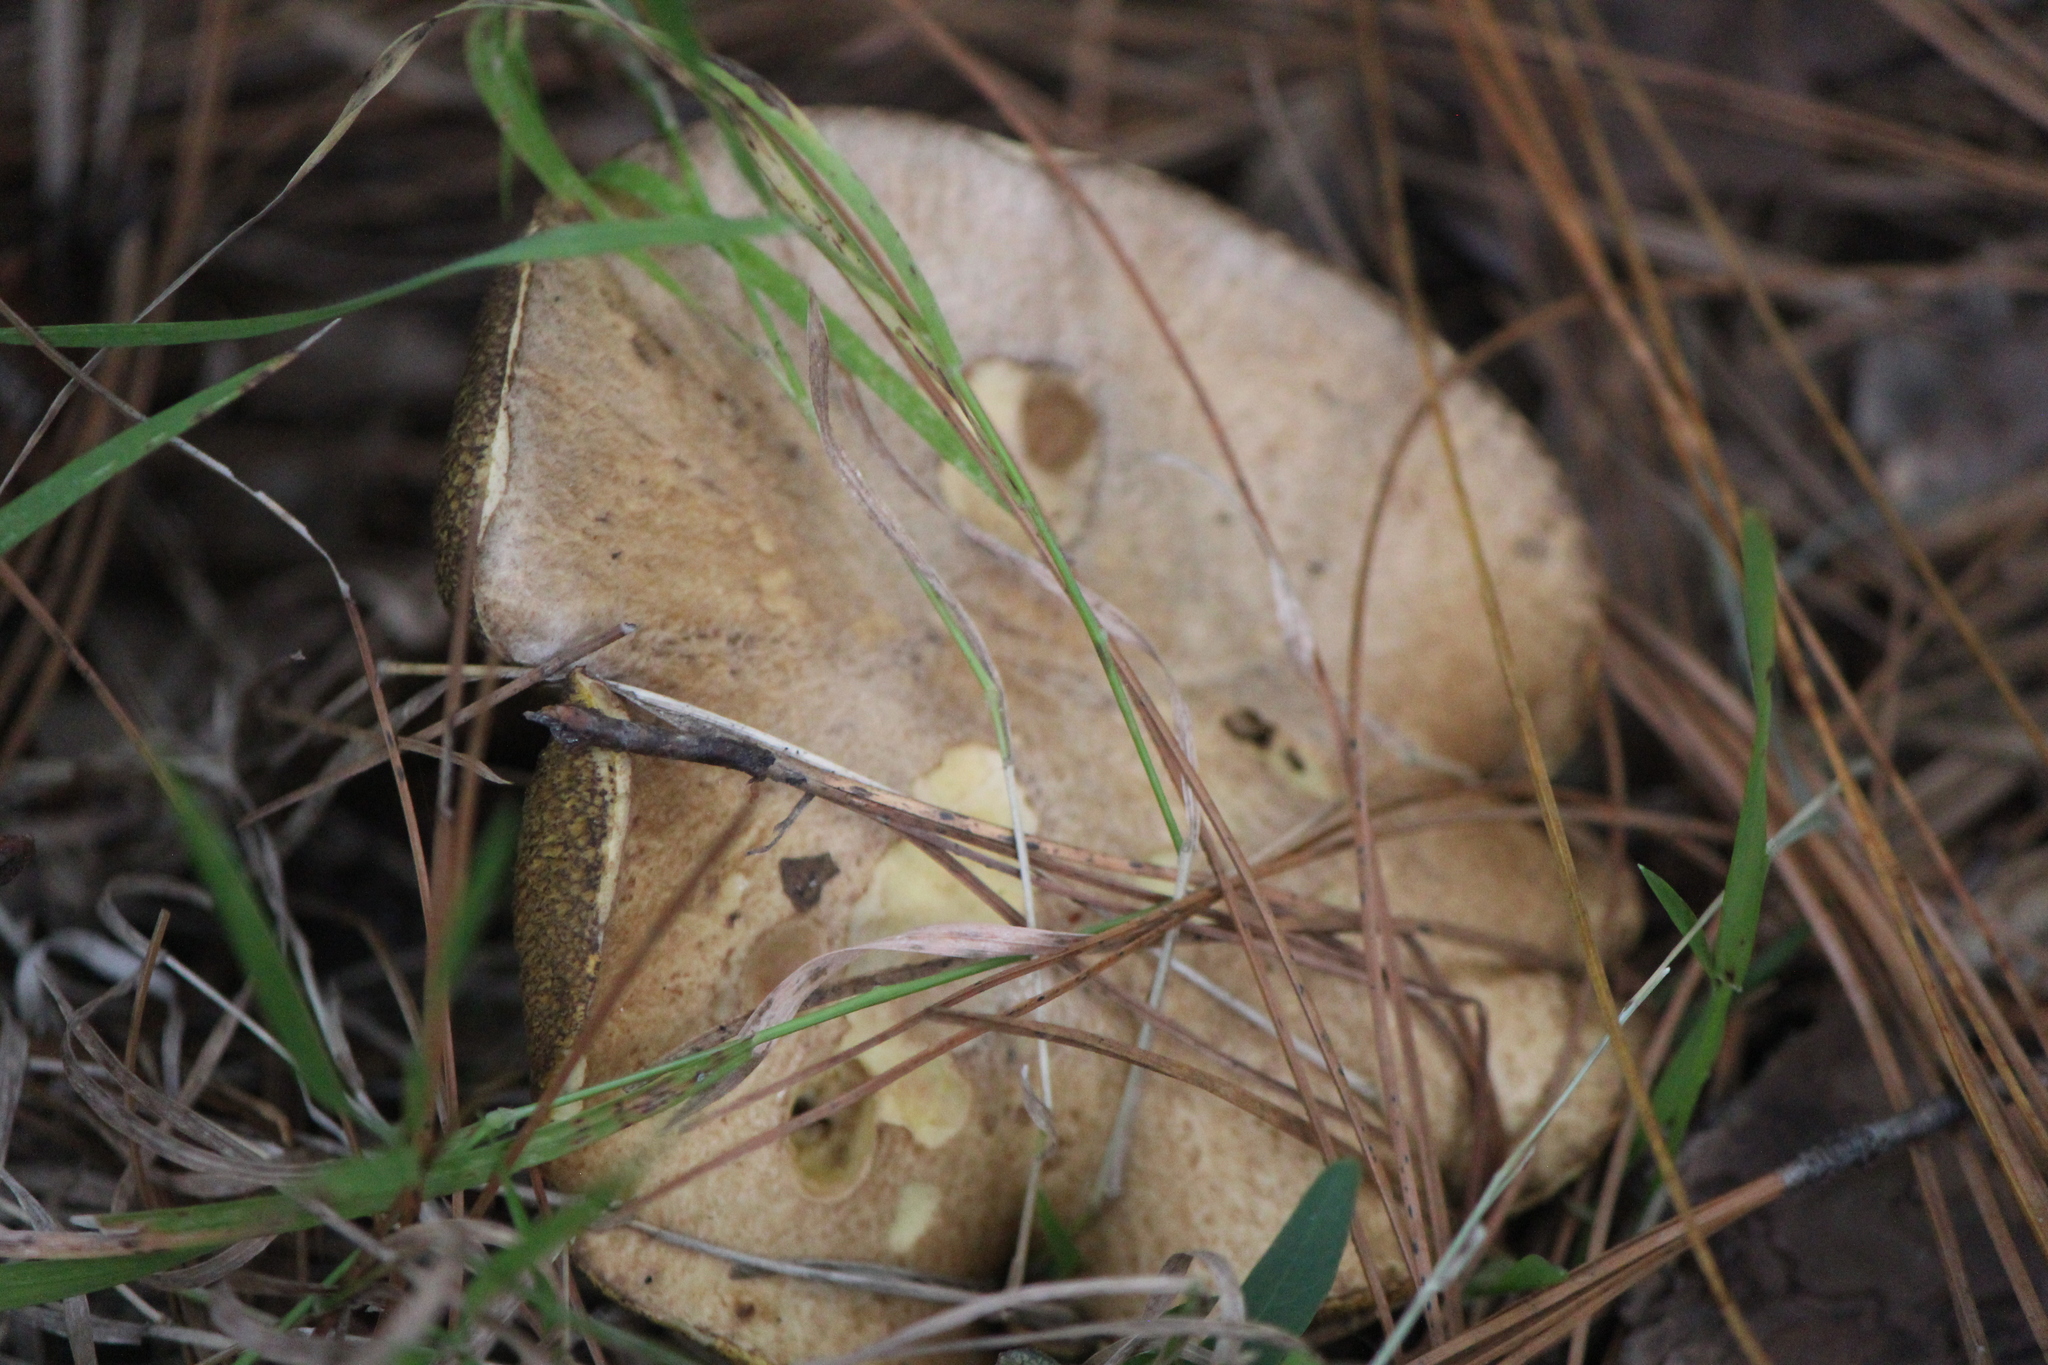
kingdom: Fungi
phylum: Basidiomycota
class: Agaricomycetes
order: Boletales
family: Suillaceae
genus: Suillus
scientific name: Suillus fuscotomentosus
